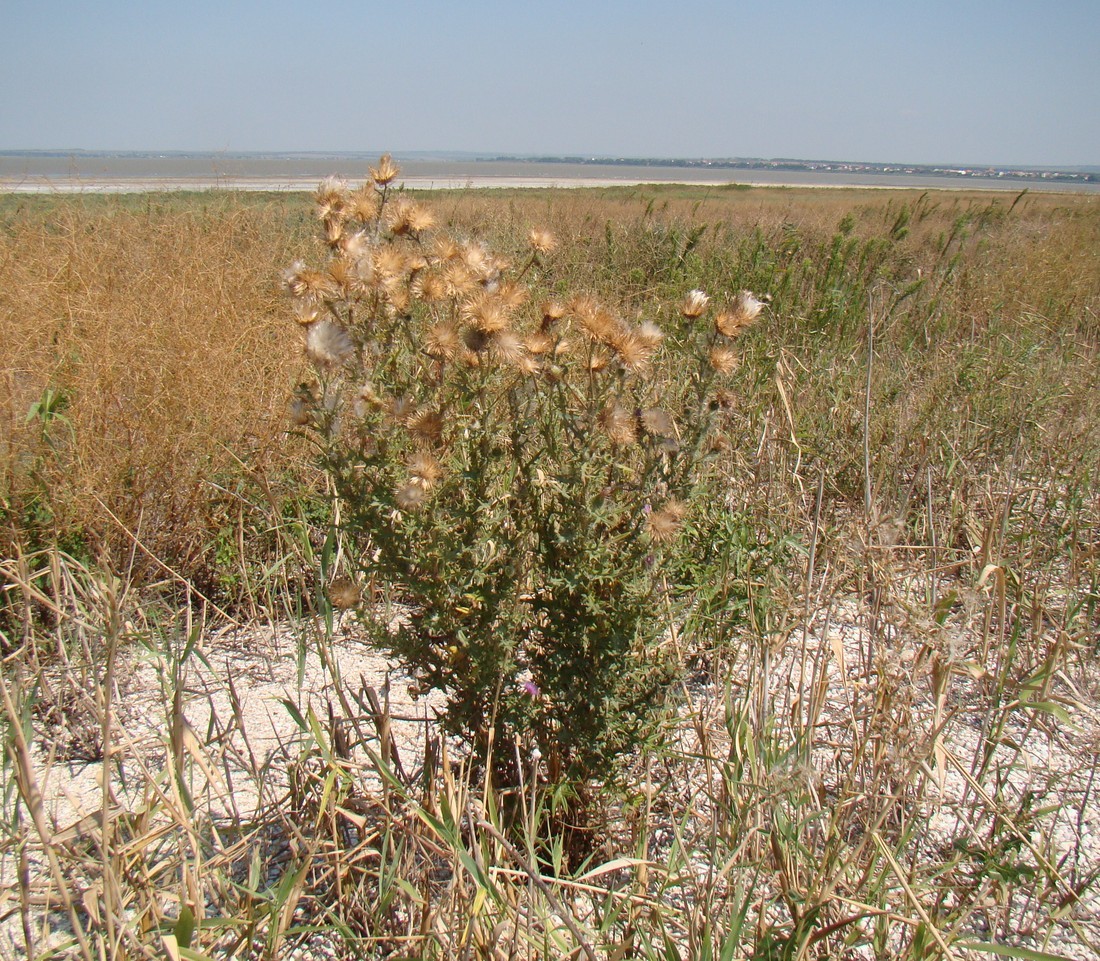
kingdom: Plantae
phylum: Tracheophyta
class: Magnoliopsida
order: Asterales
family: Asteraceae
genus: Cirsium
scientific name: Cirsium vulgare
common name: Bull thistle
